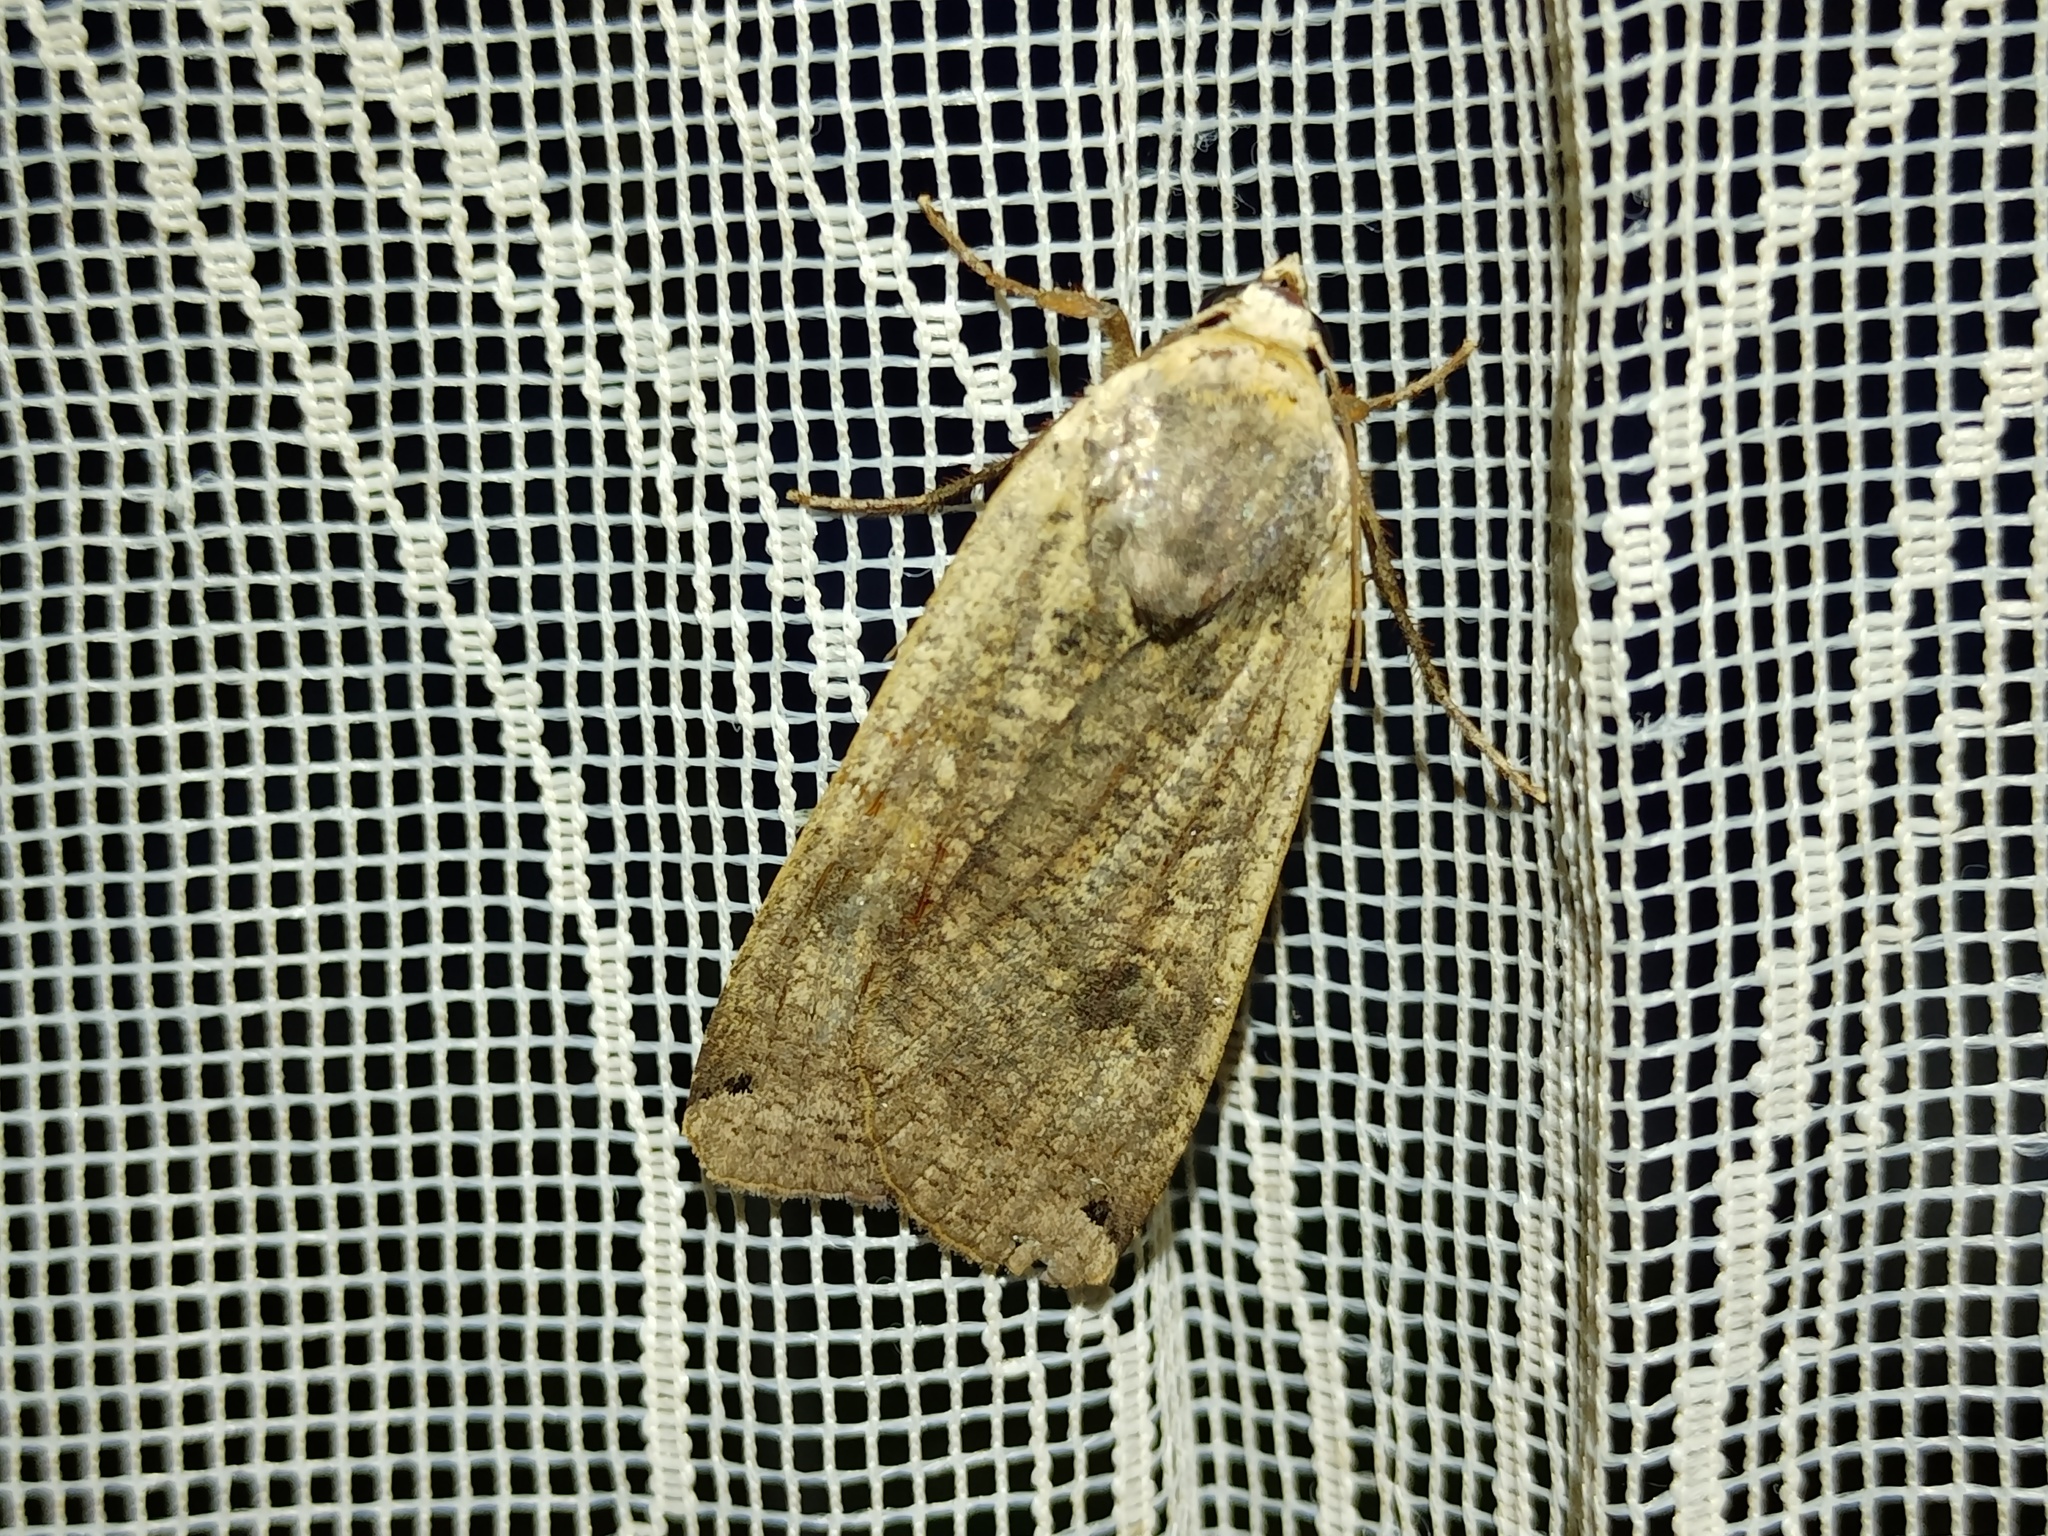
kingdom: Animalia
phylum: Arthropoda
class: Insecta
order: Lepidoptera
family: Noctuidae
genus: Noctua
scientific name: Noctua pronuba
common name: Large yellow underwing
